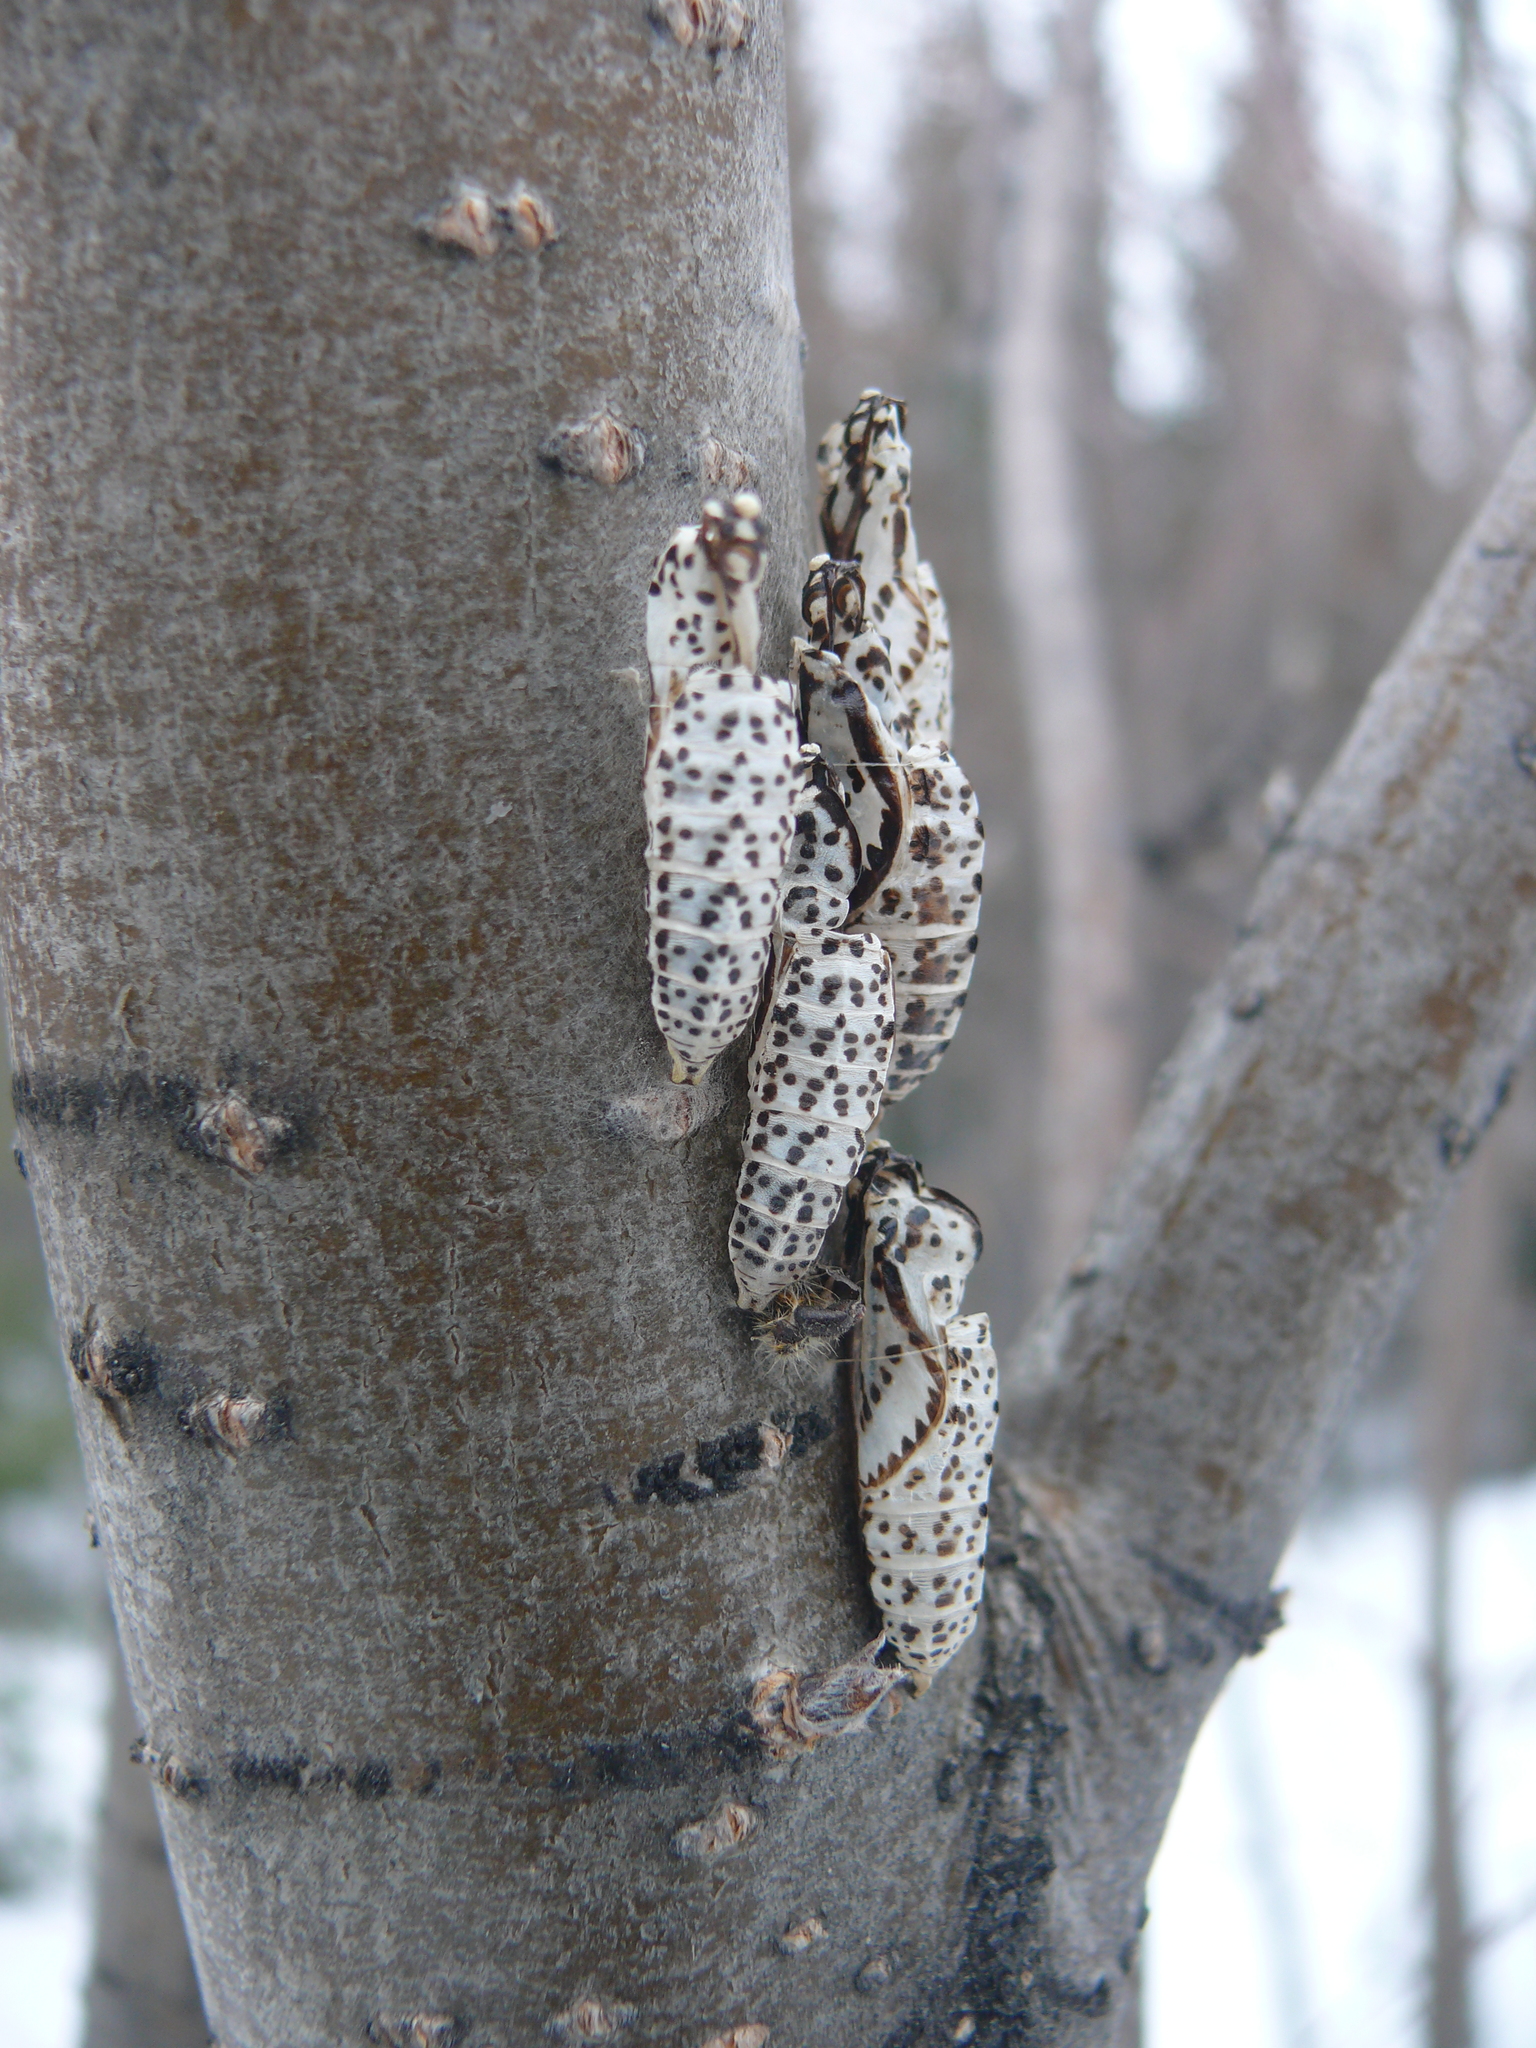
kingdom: Animalia
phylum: Arthropoda
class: Insecta
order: Lepidoptera
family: Pieridae
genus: Aporia
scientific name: Aporia crataegi
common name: Black-veined white
